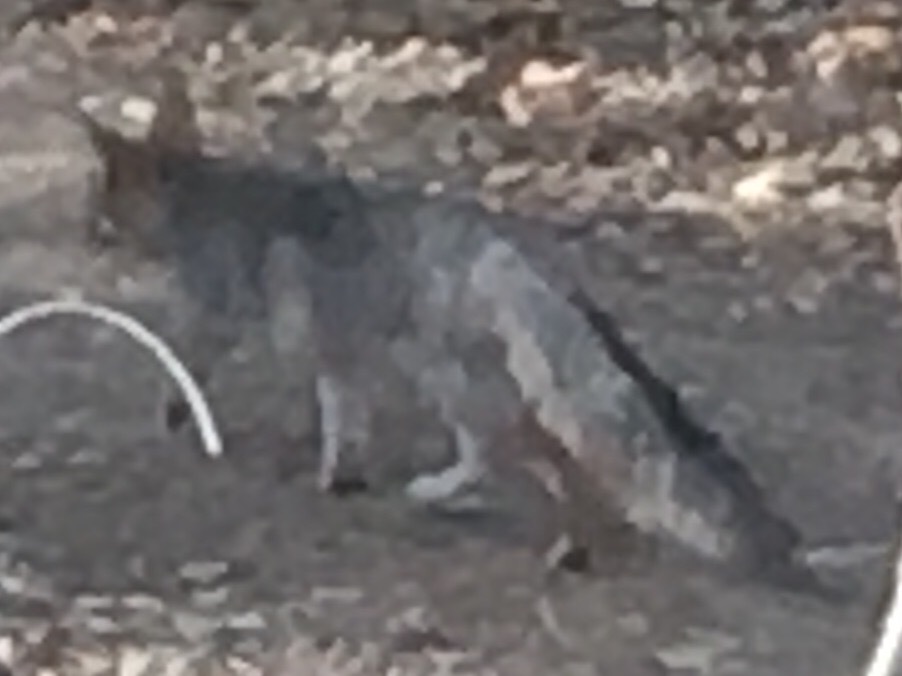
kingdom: Animalia
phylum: Chordata
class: Mammalia
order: Carnivora
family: Canidae
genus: Urocyon
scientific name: Urocyon cinereoargenteus
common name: Gray fox
